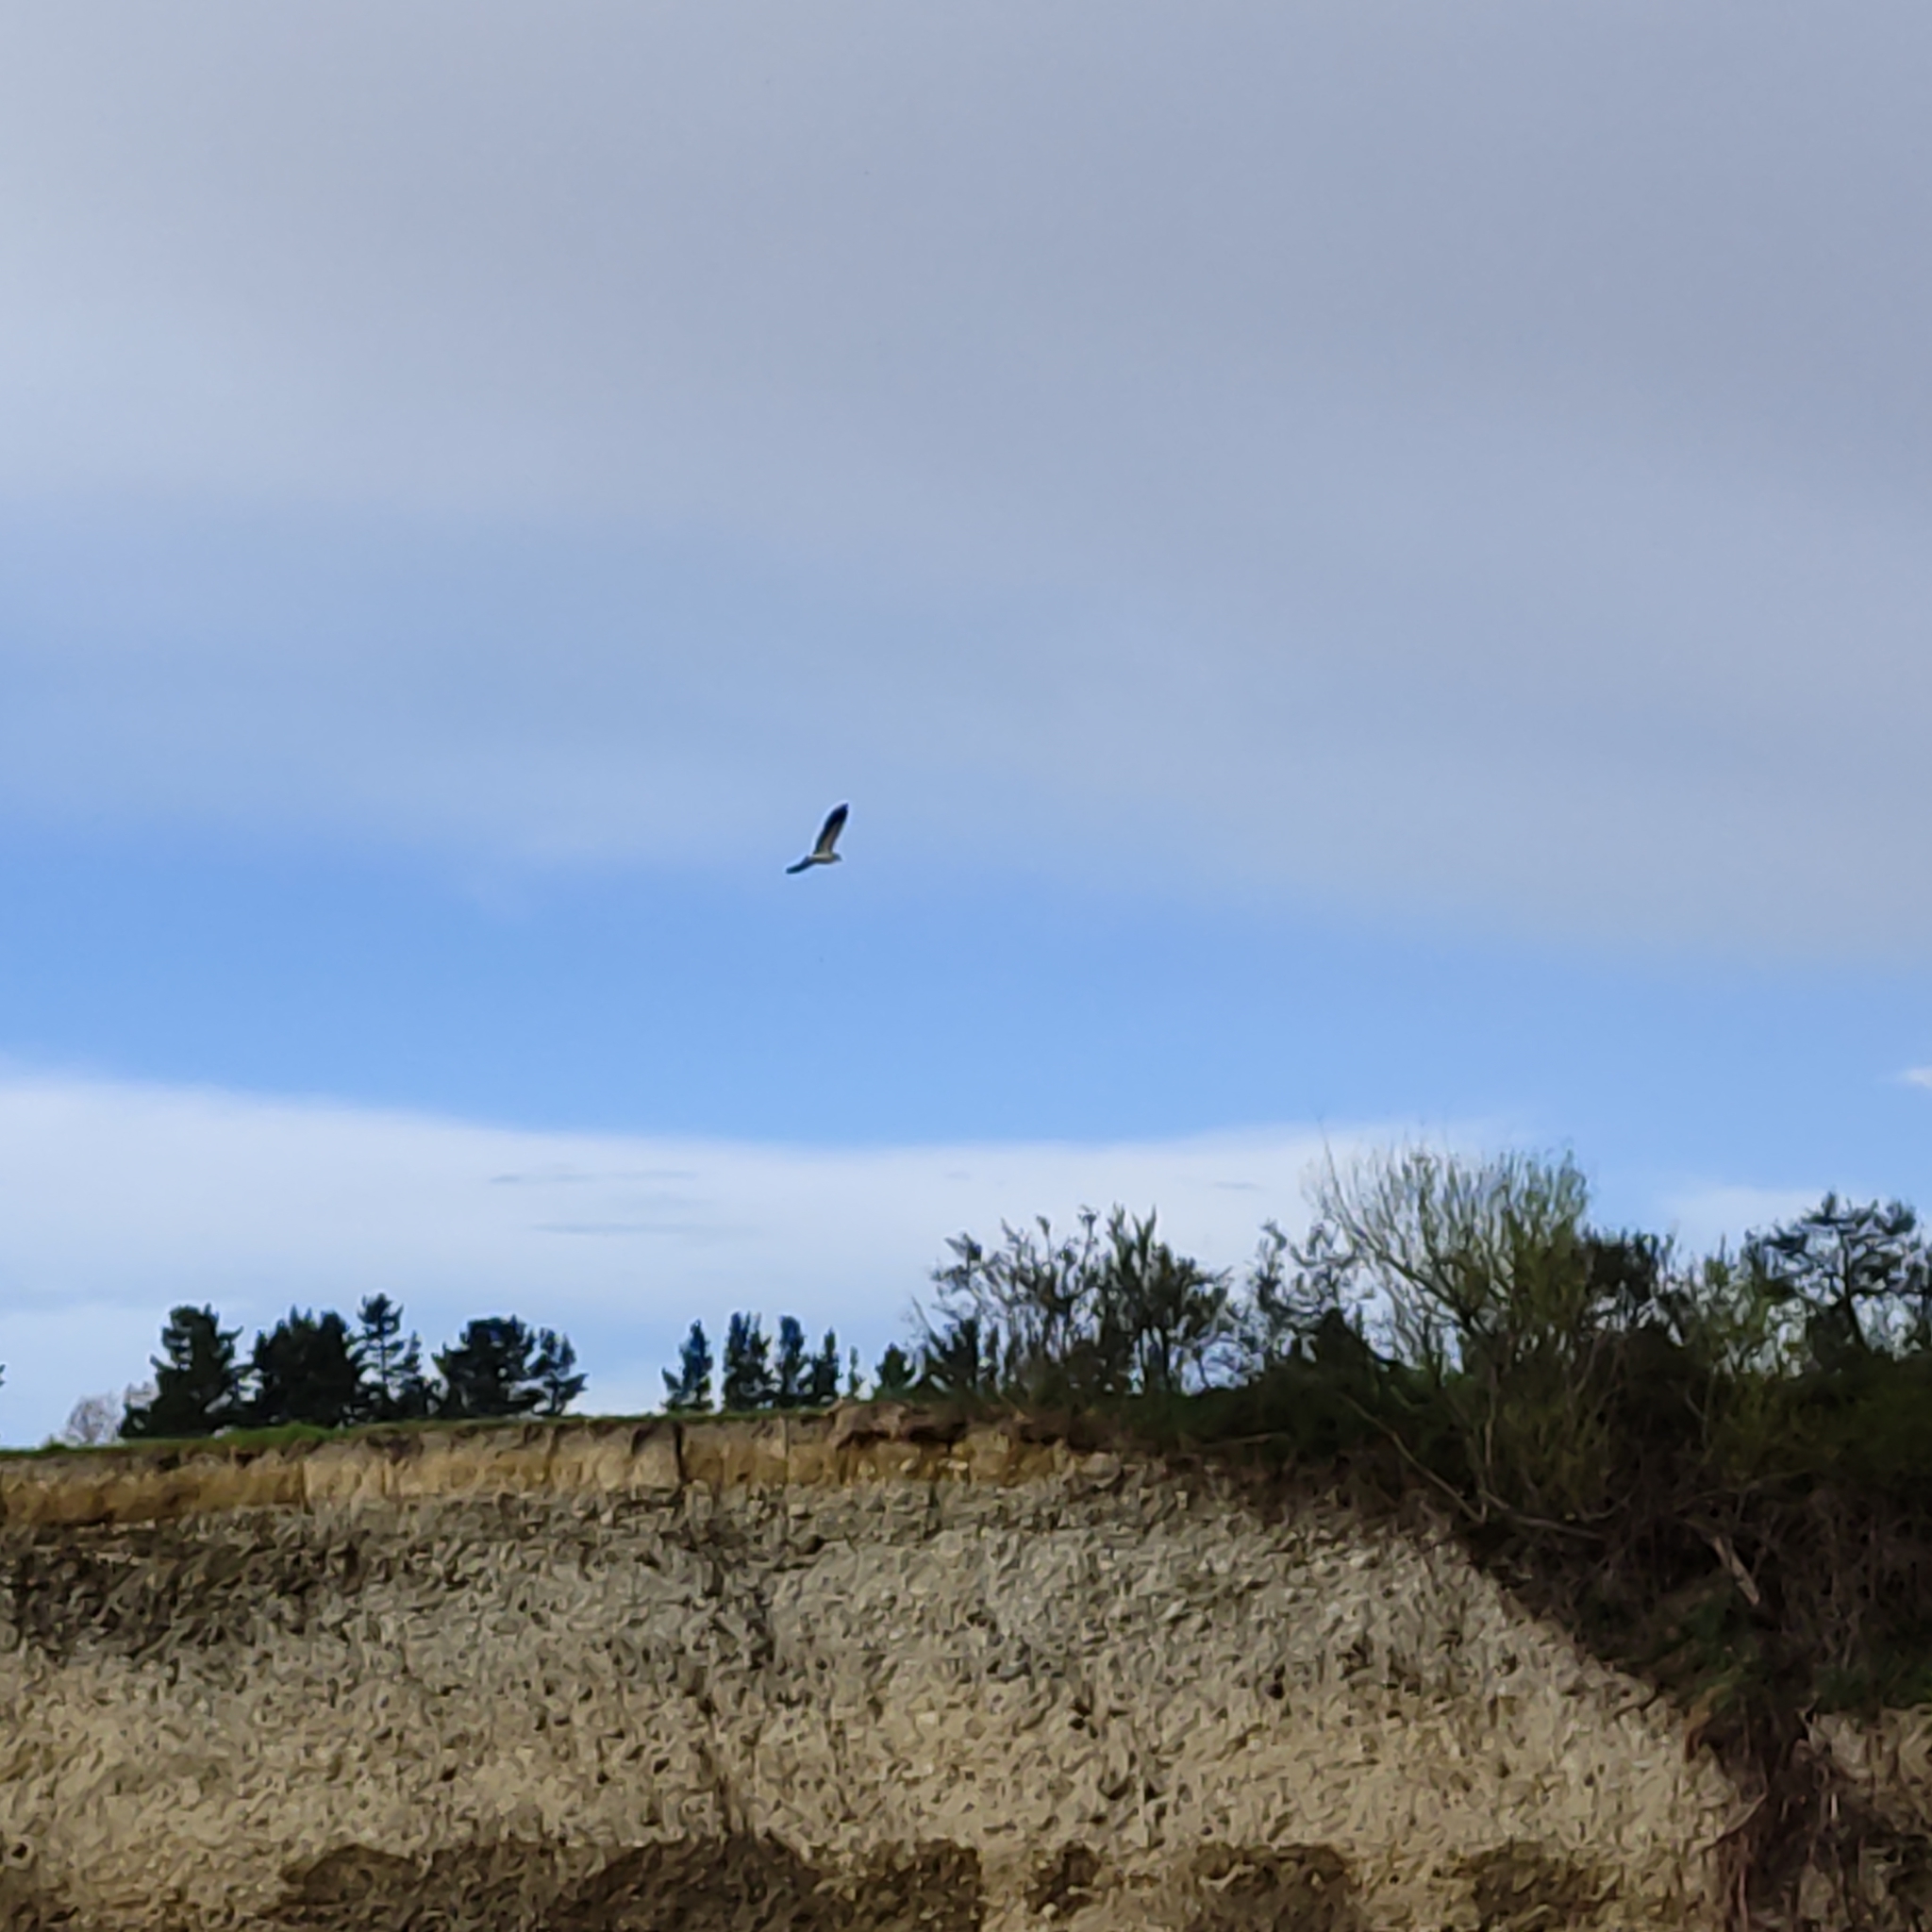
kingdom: Animalia
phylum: Chordata
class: Aves
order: Charadriiformes
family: Charadriidae
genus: Vanellus
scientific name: Vanellus miles
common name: Masked lapwing
